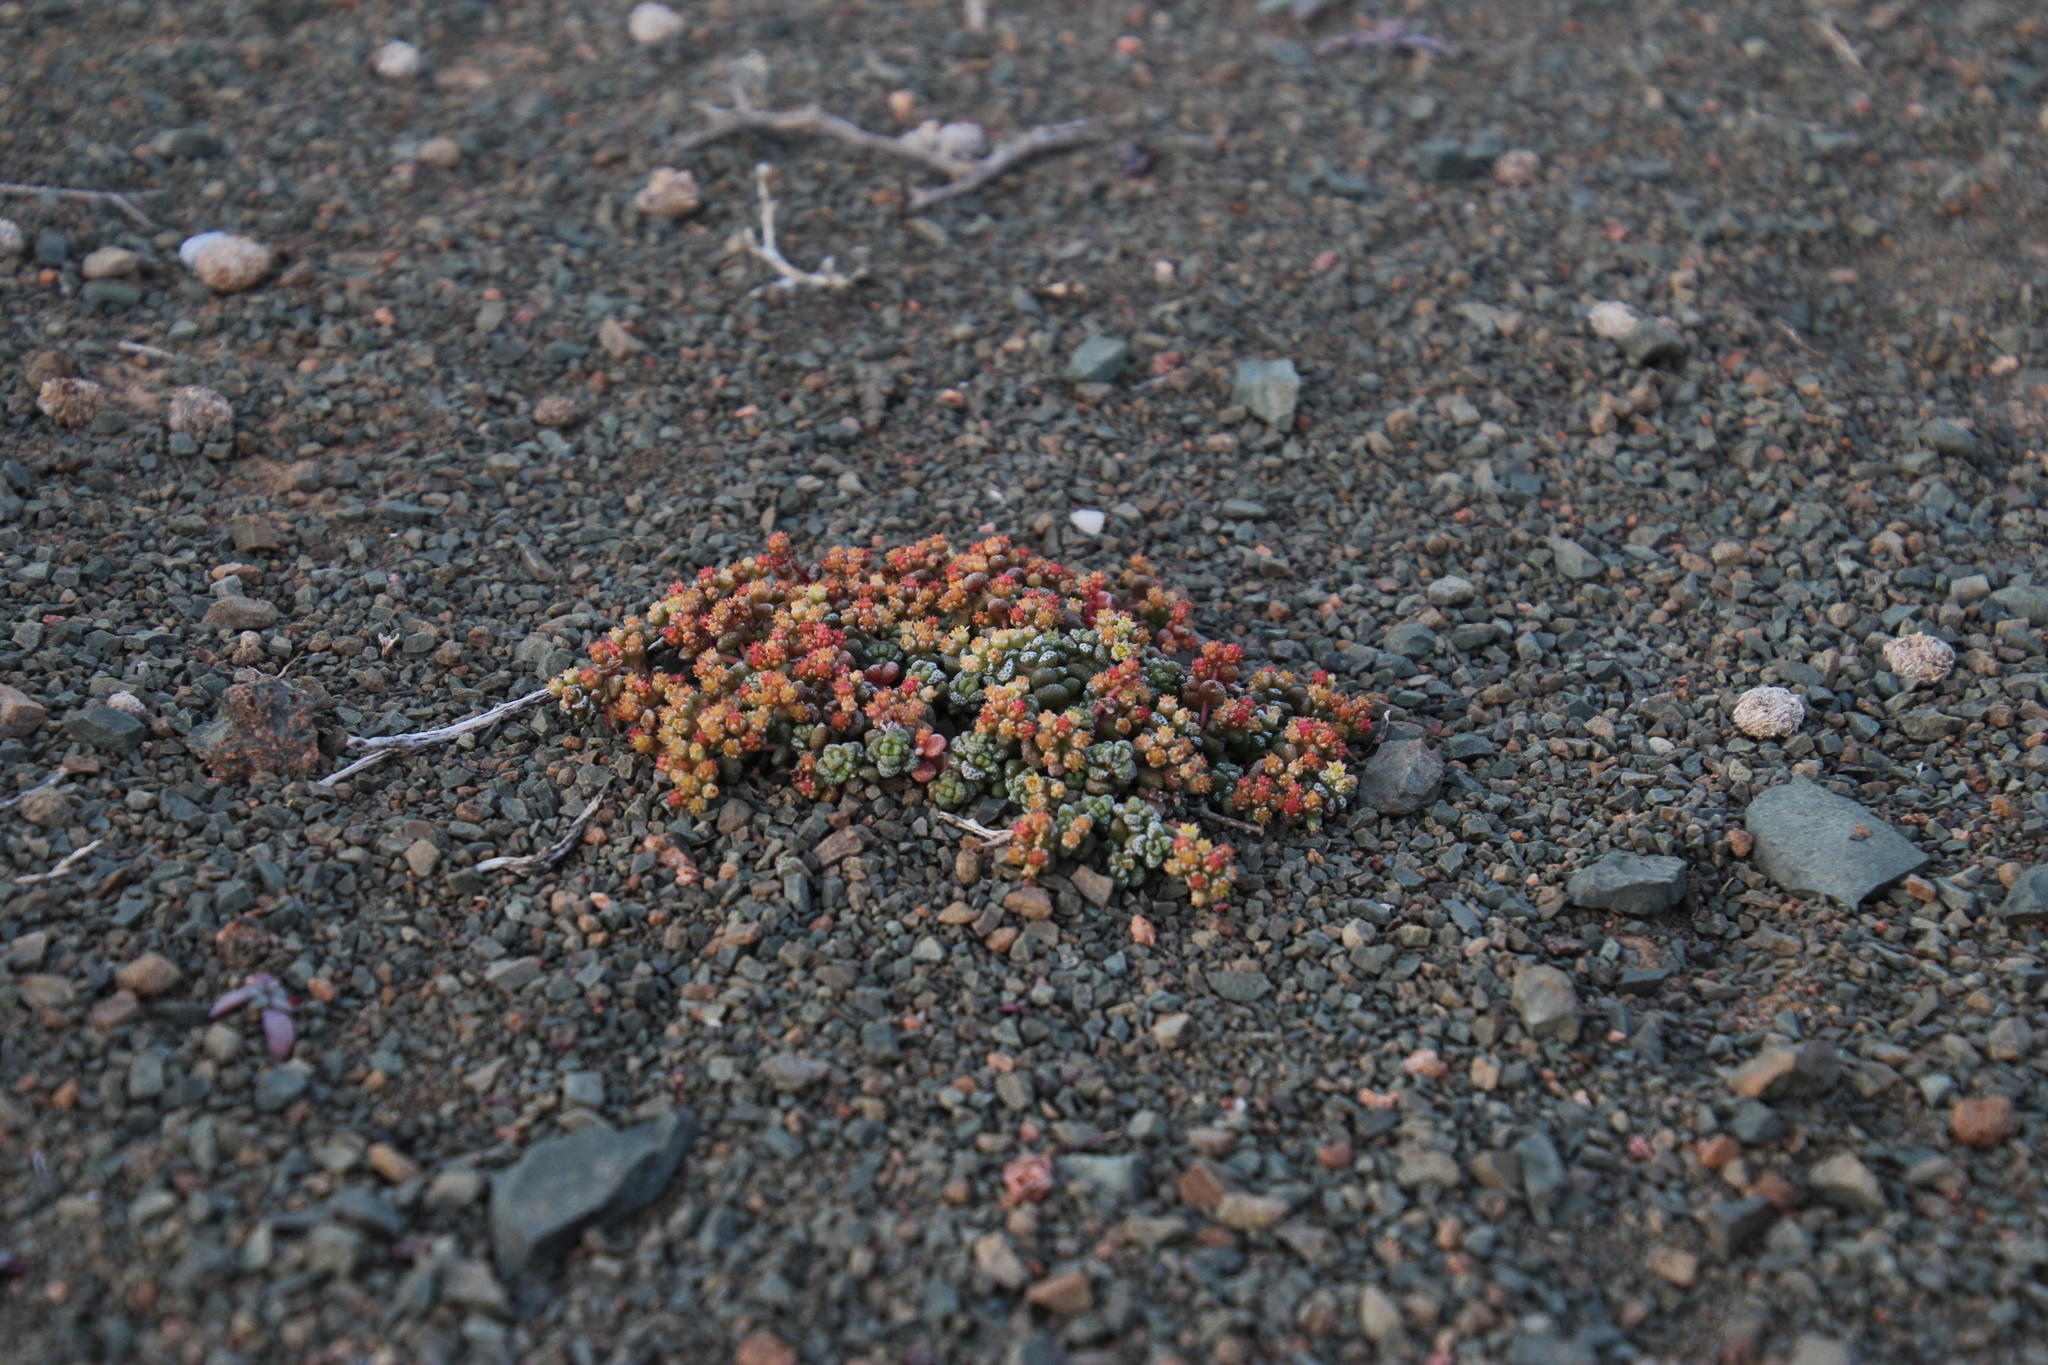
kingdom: Plantae
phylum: Tracheophyta
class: Magnoliopsida
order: Saxifragales
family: Crassulaceae
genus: Crassula
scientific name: Crassula corallina
